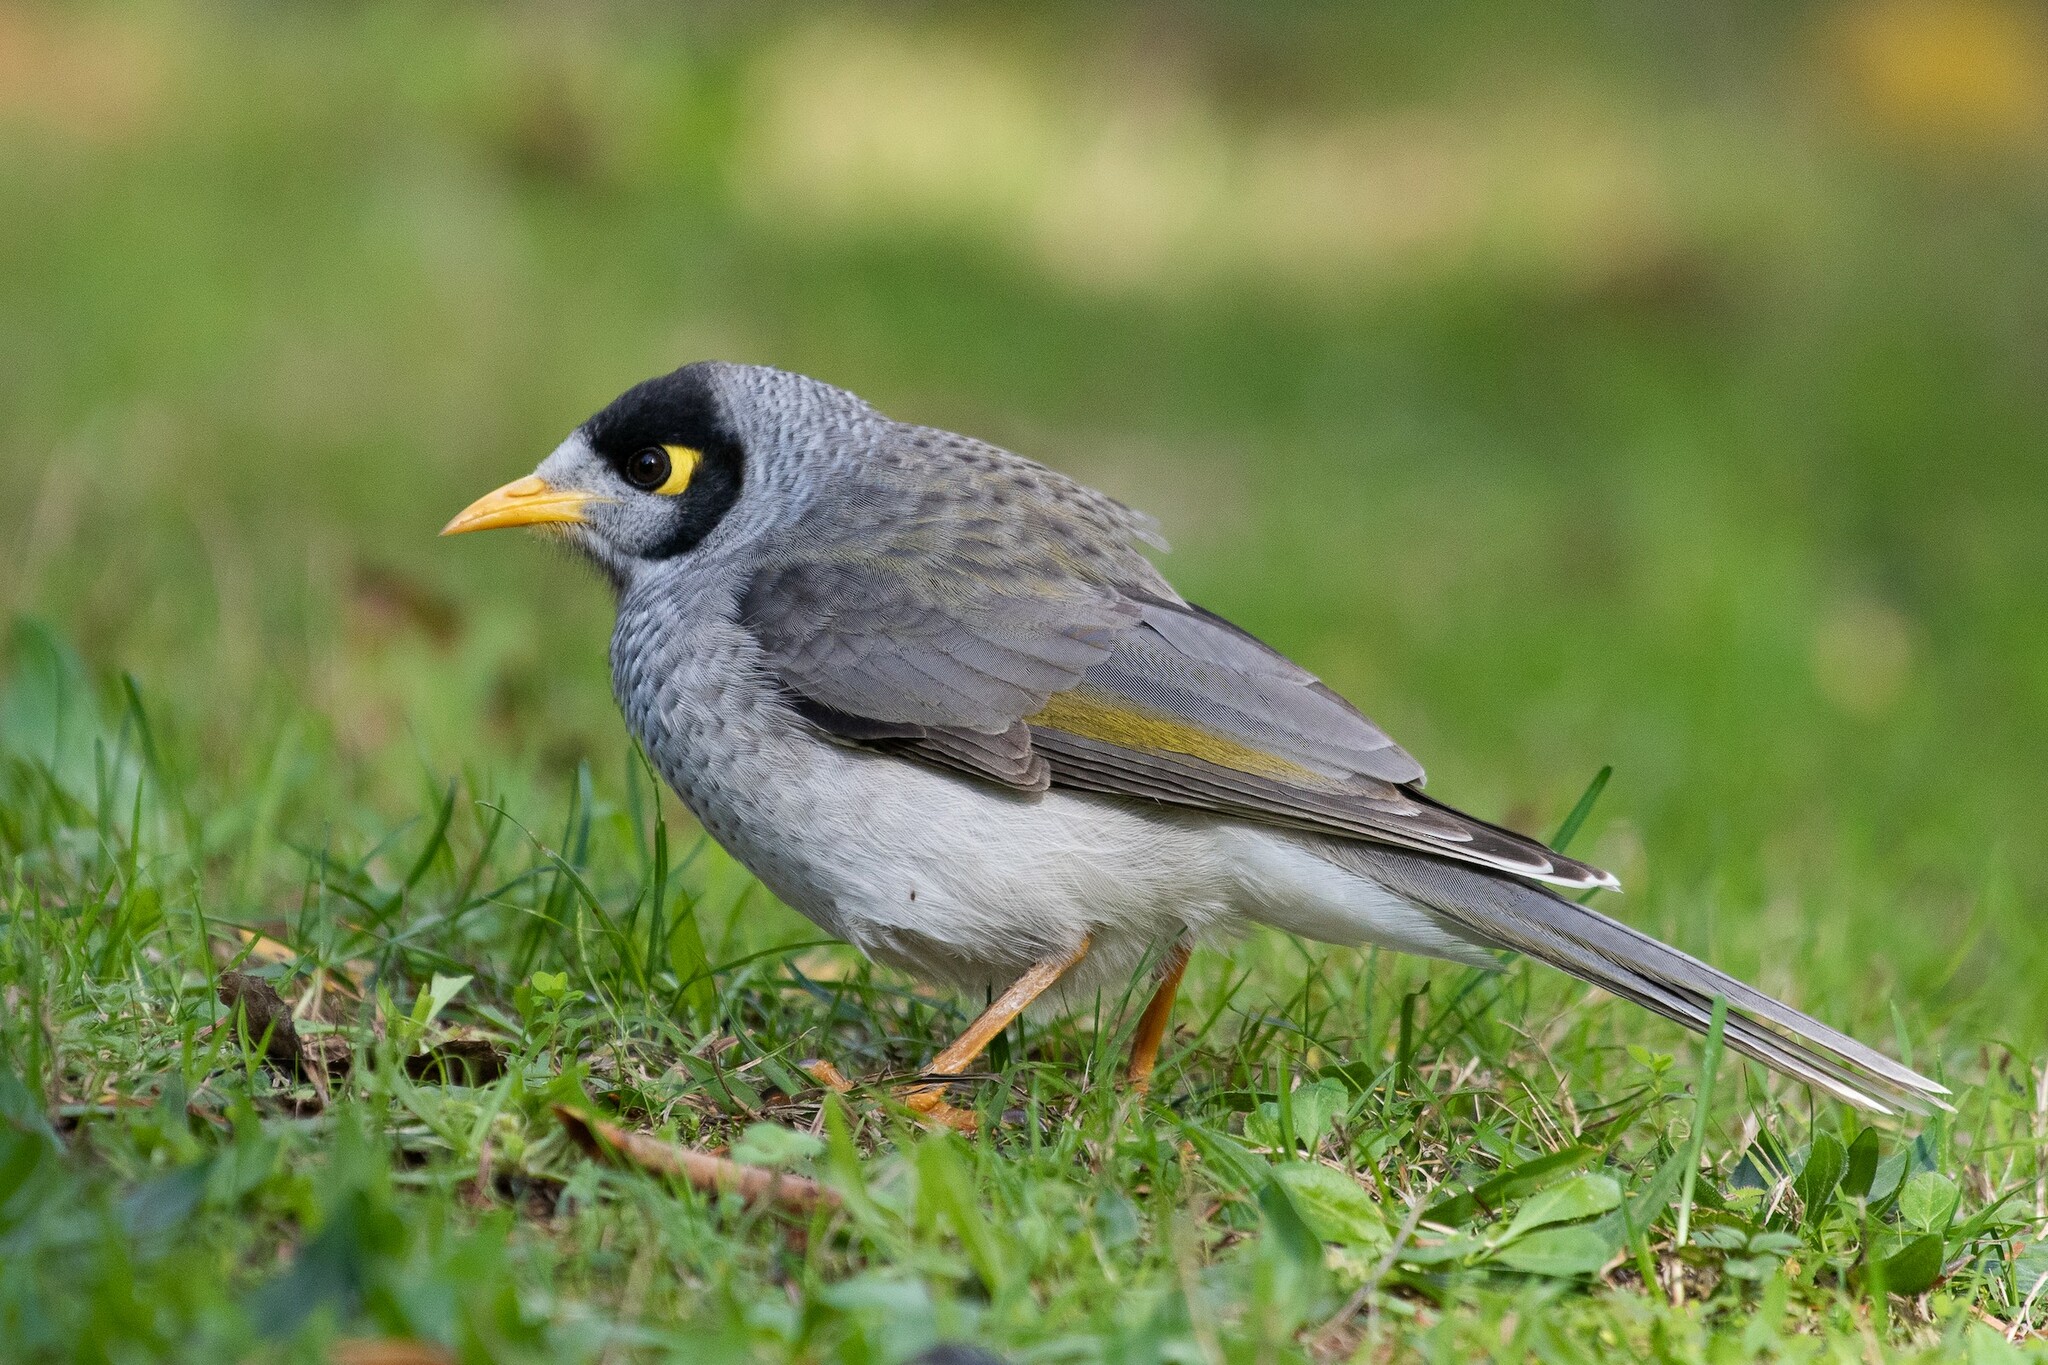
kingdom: Animalia
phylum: Chordata
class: Aves
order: Passeriformes
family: Meliphagidae
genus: Manorina
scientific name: Manorina melanocephala
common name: Noisy miner
